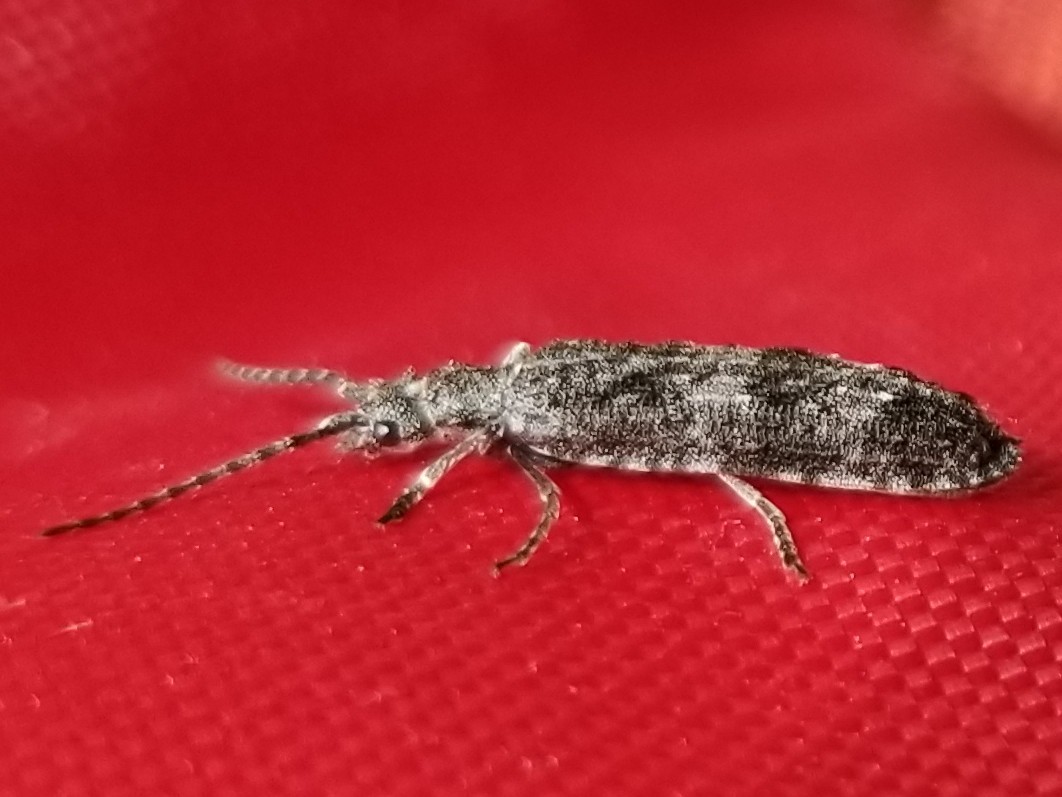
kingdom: Animalia
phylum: Arthropoda
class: Insecta
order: Coleoptera
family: Cupedidae
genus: Priacma
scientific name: Priacma serrata
